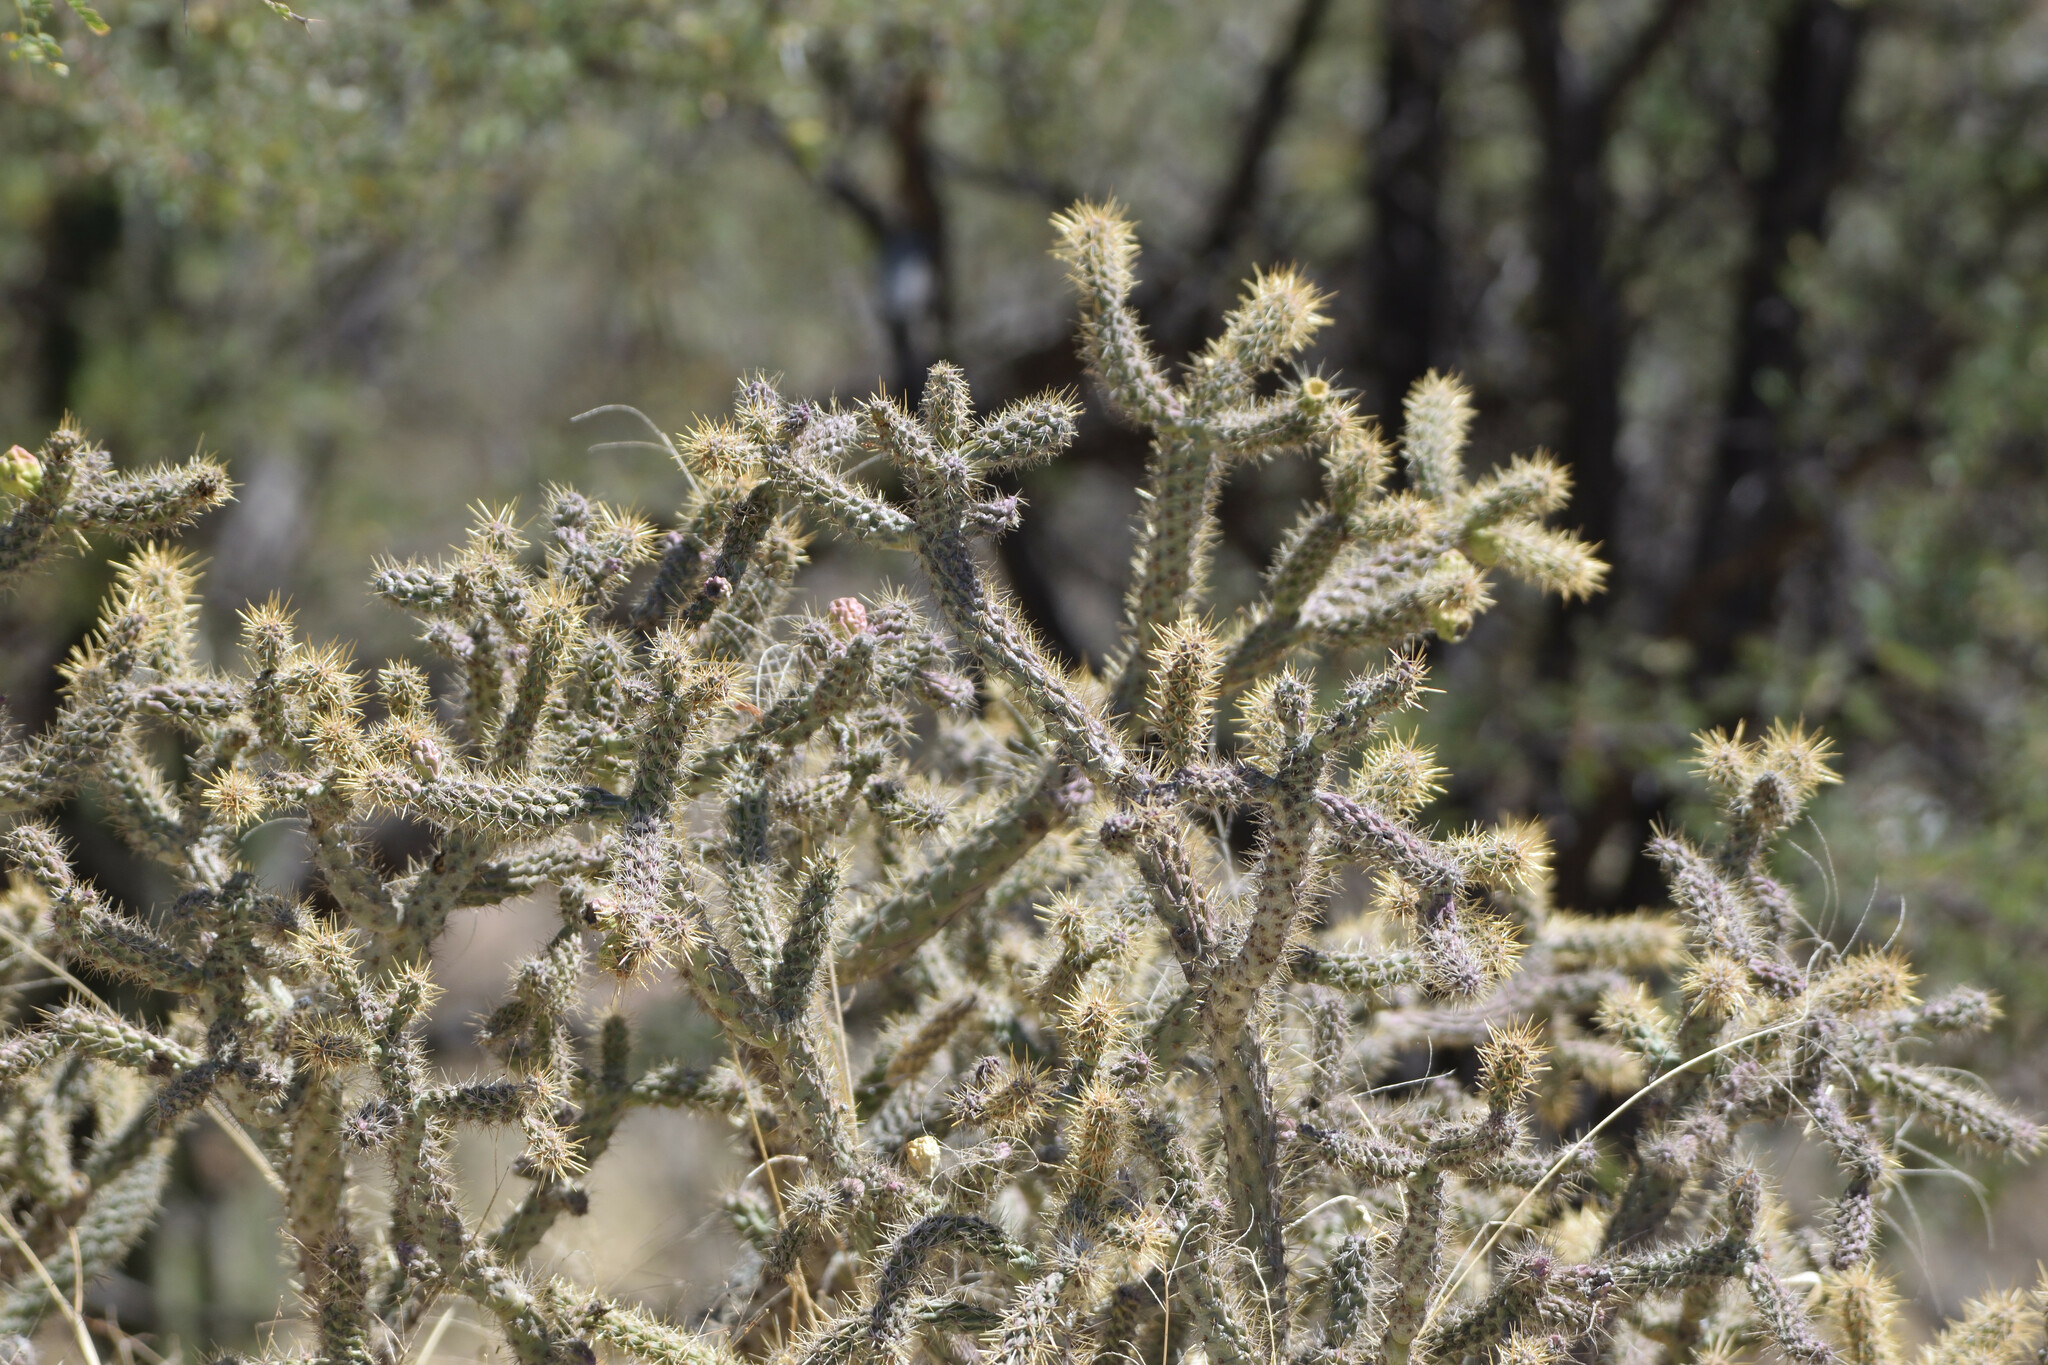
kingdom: Plantae
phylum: Tracheophyta
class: Magnoliopsida
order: Caryophyllales
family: Cactaceae
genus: Cylindropuntia
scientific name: Cylindropuntia alcahes
